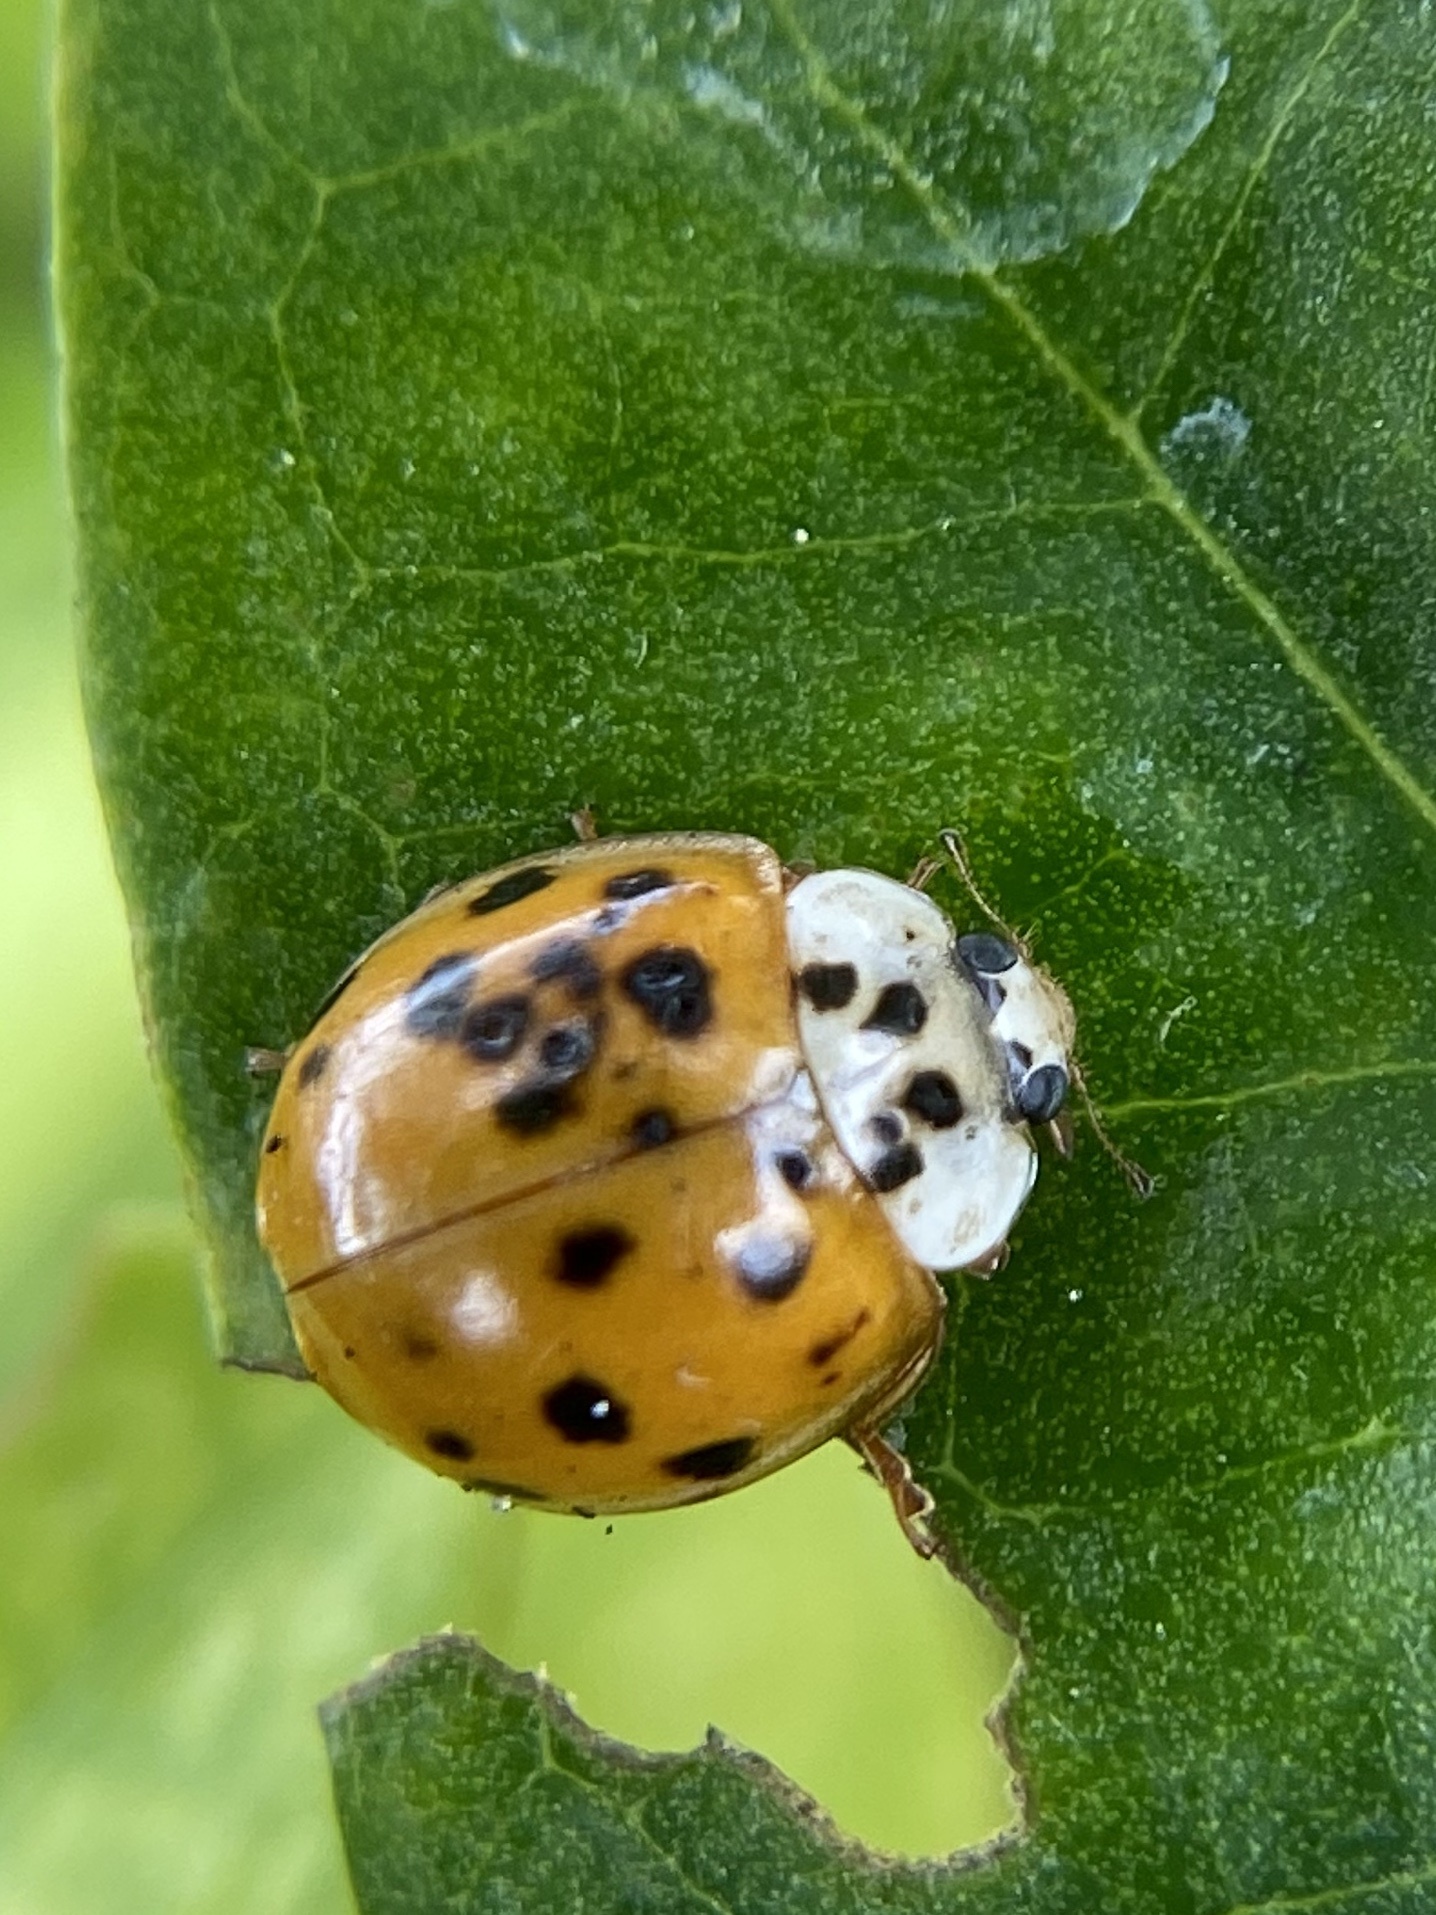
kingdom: Animalia
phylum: Arthropoda
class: Insecta
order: Coleoptera
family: Coccinellidae
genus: Harmonia
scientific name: Harmonia axyridis
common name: Harlequin ladybird
